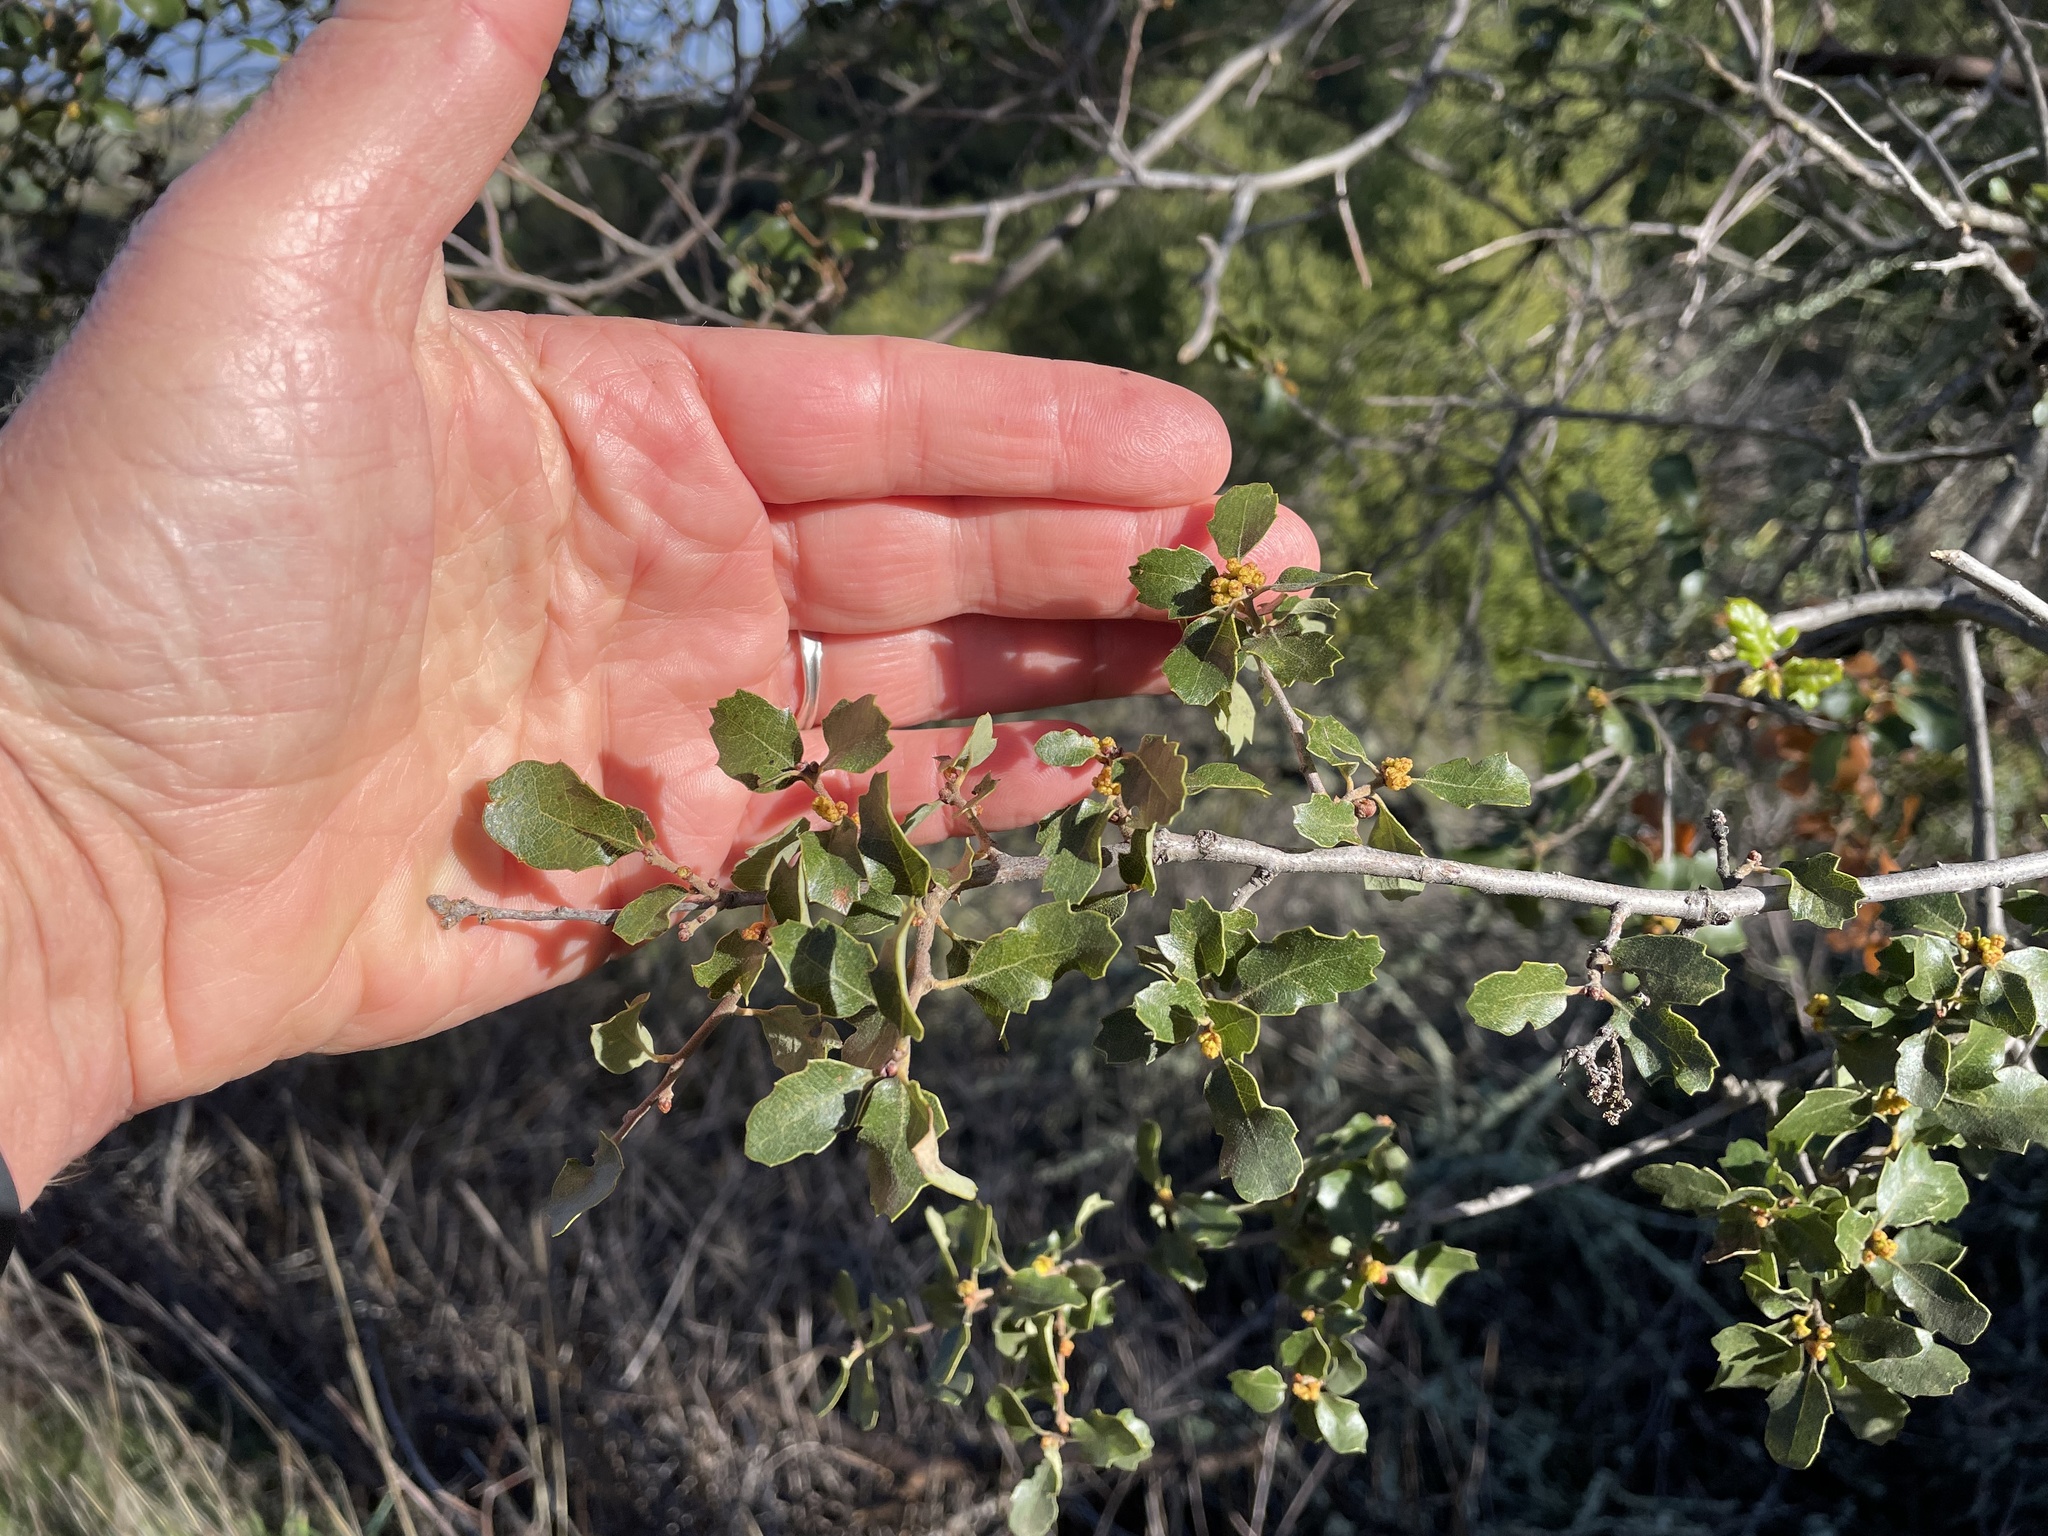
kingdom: Plantae
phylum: Tracheophyta
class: Magnoliopsida
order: Fagales
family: Fagaceae
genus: Quercus
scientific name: Quercus berberidifolia
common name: California scrub oak
